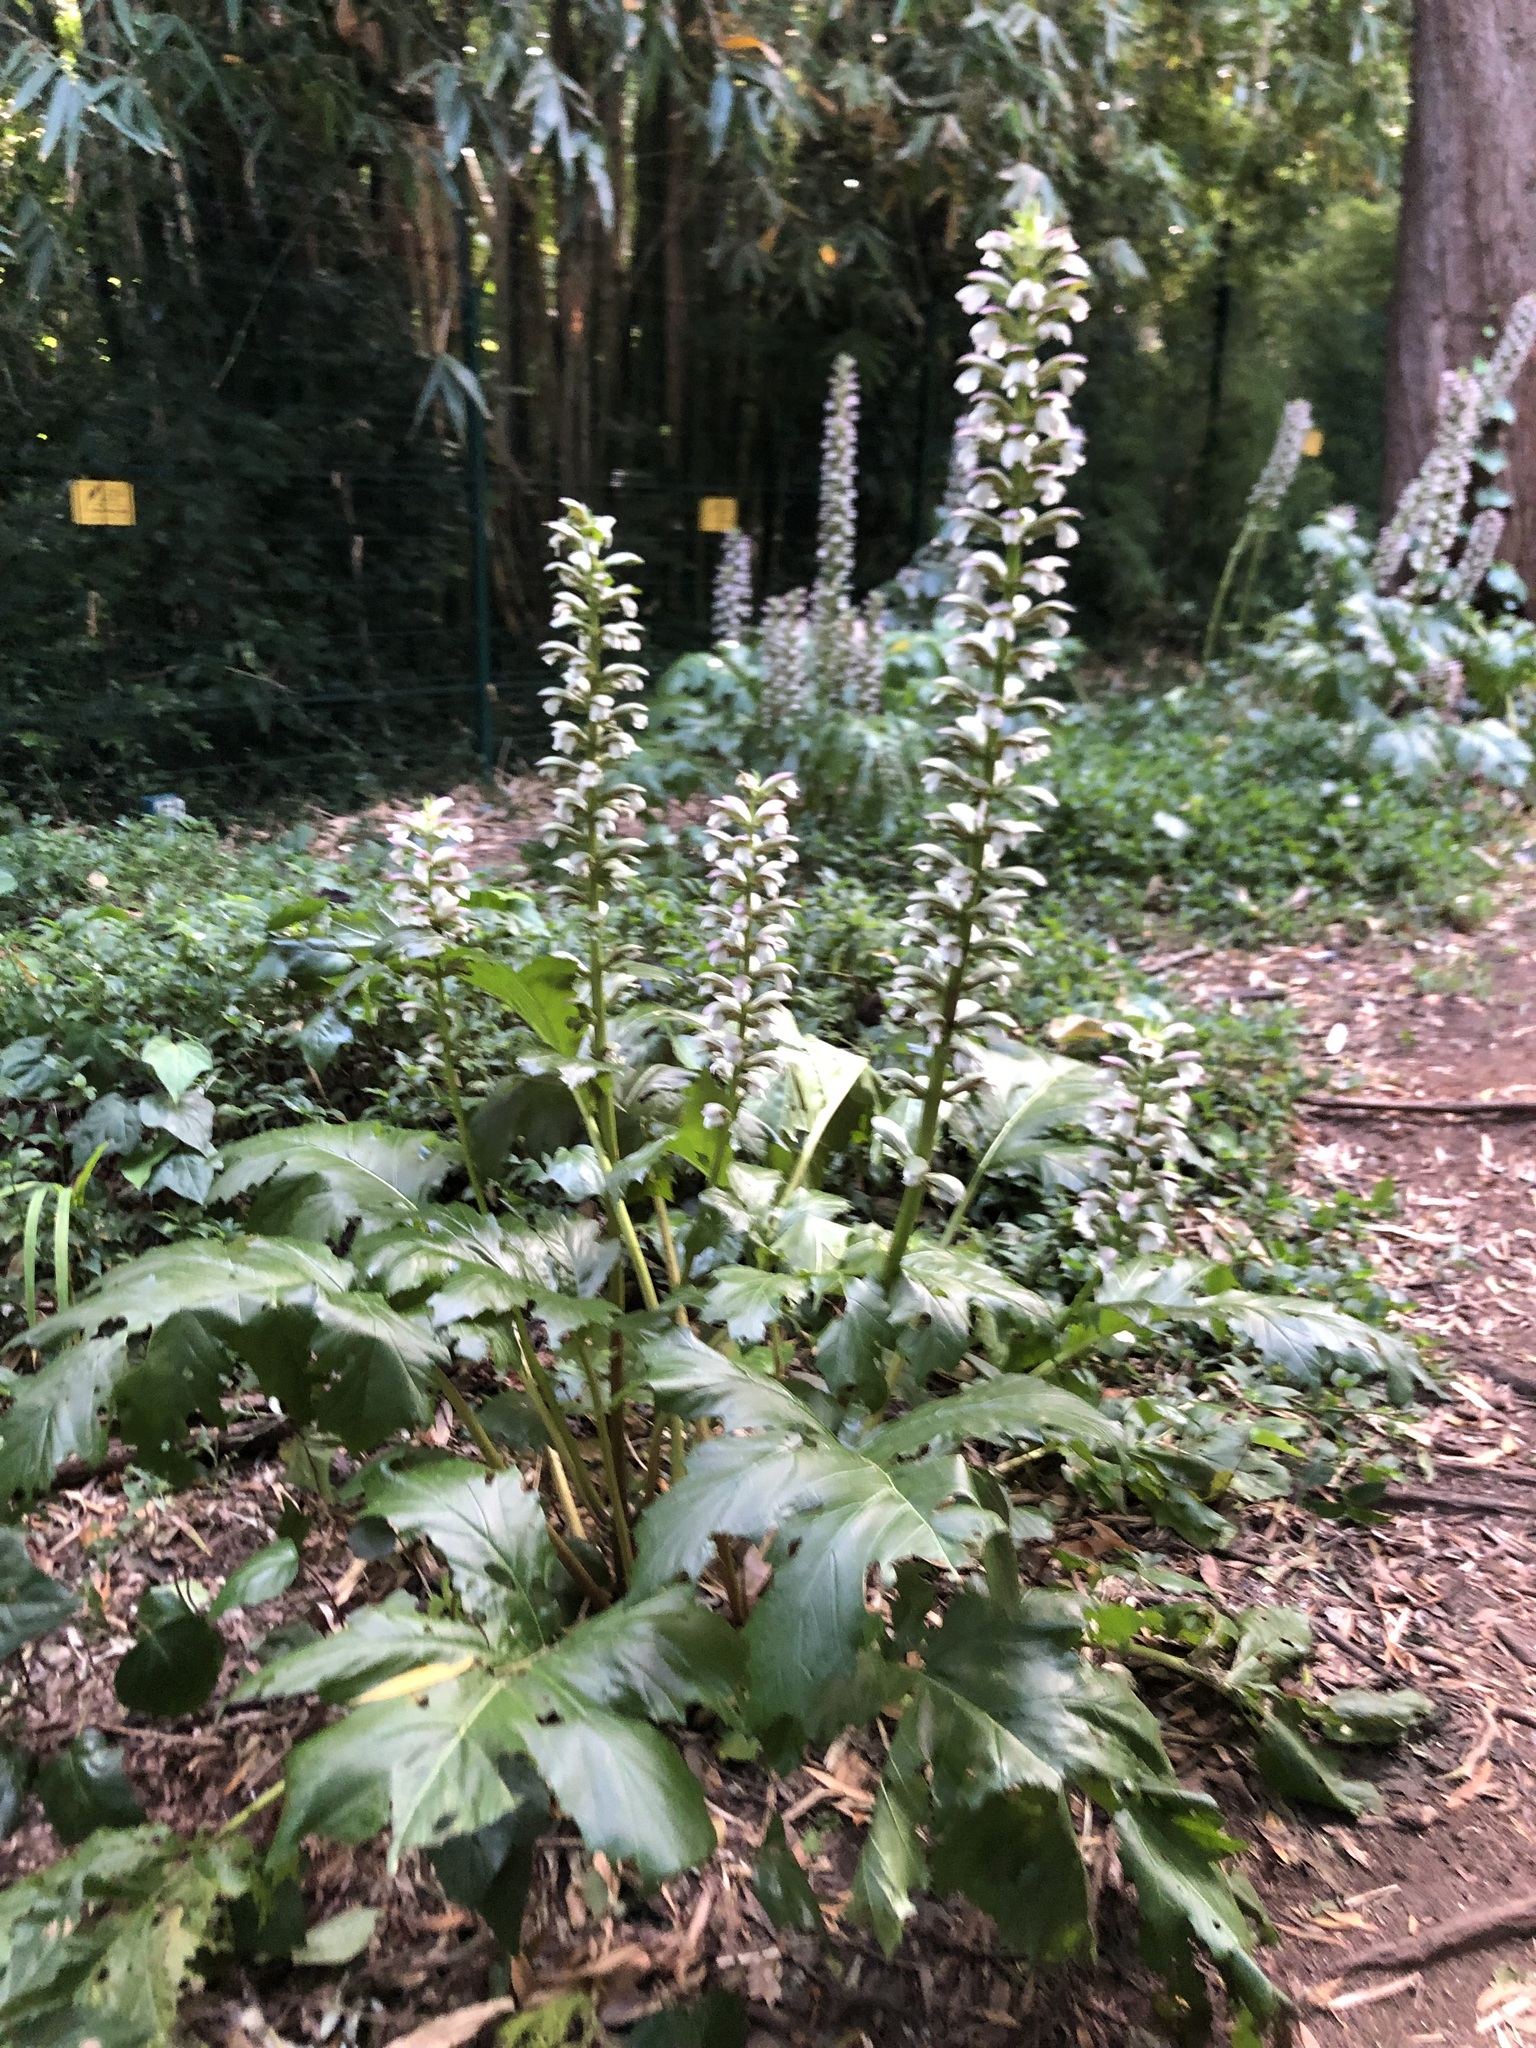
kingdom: Plantae
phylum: Tracheophyta
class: Magnoliopsida
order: Lamiales
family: Acanthaceae
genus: Acanthus
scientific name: Acanthus mollis
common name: Bear's-breech
